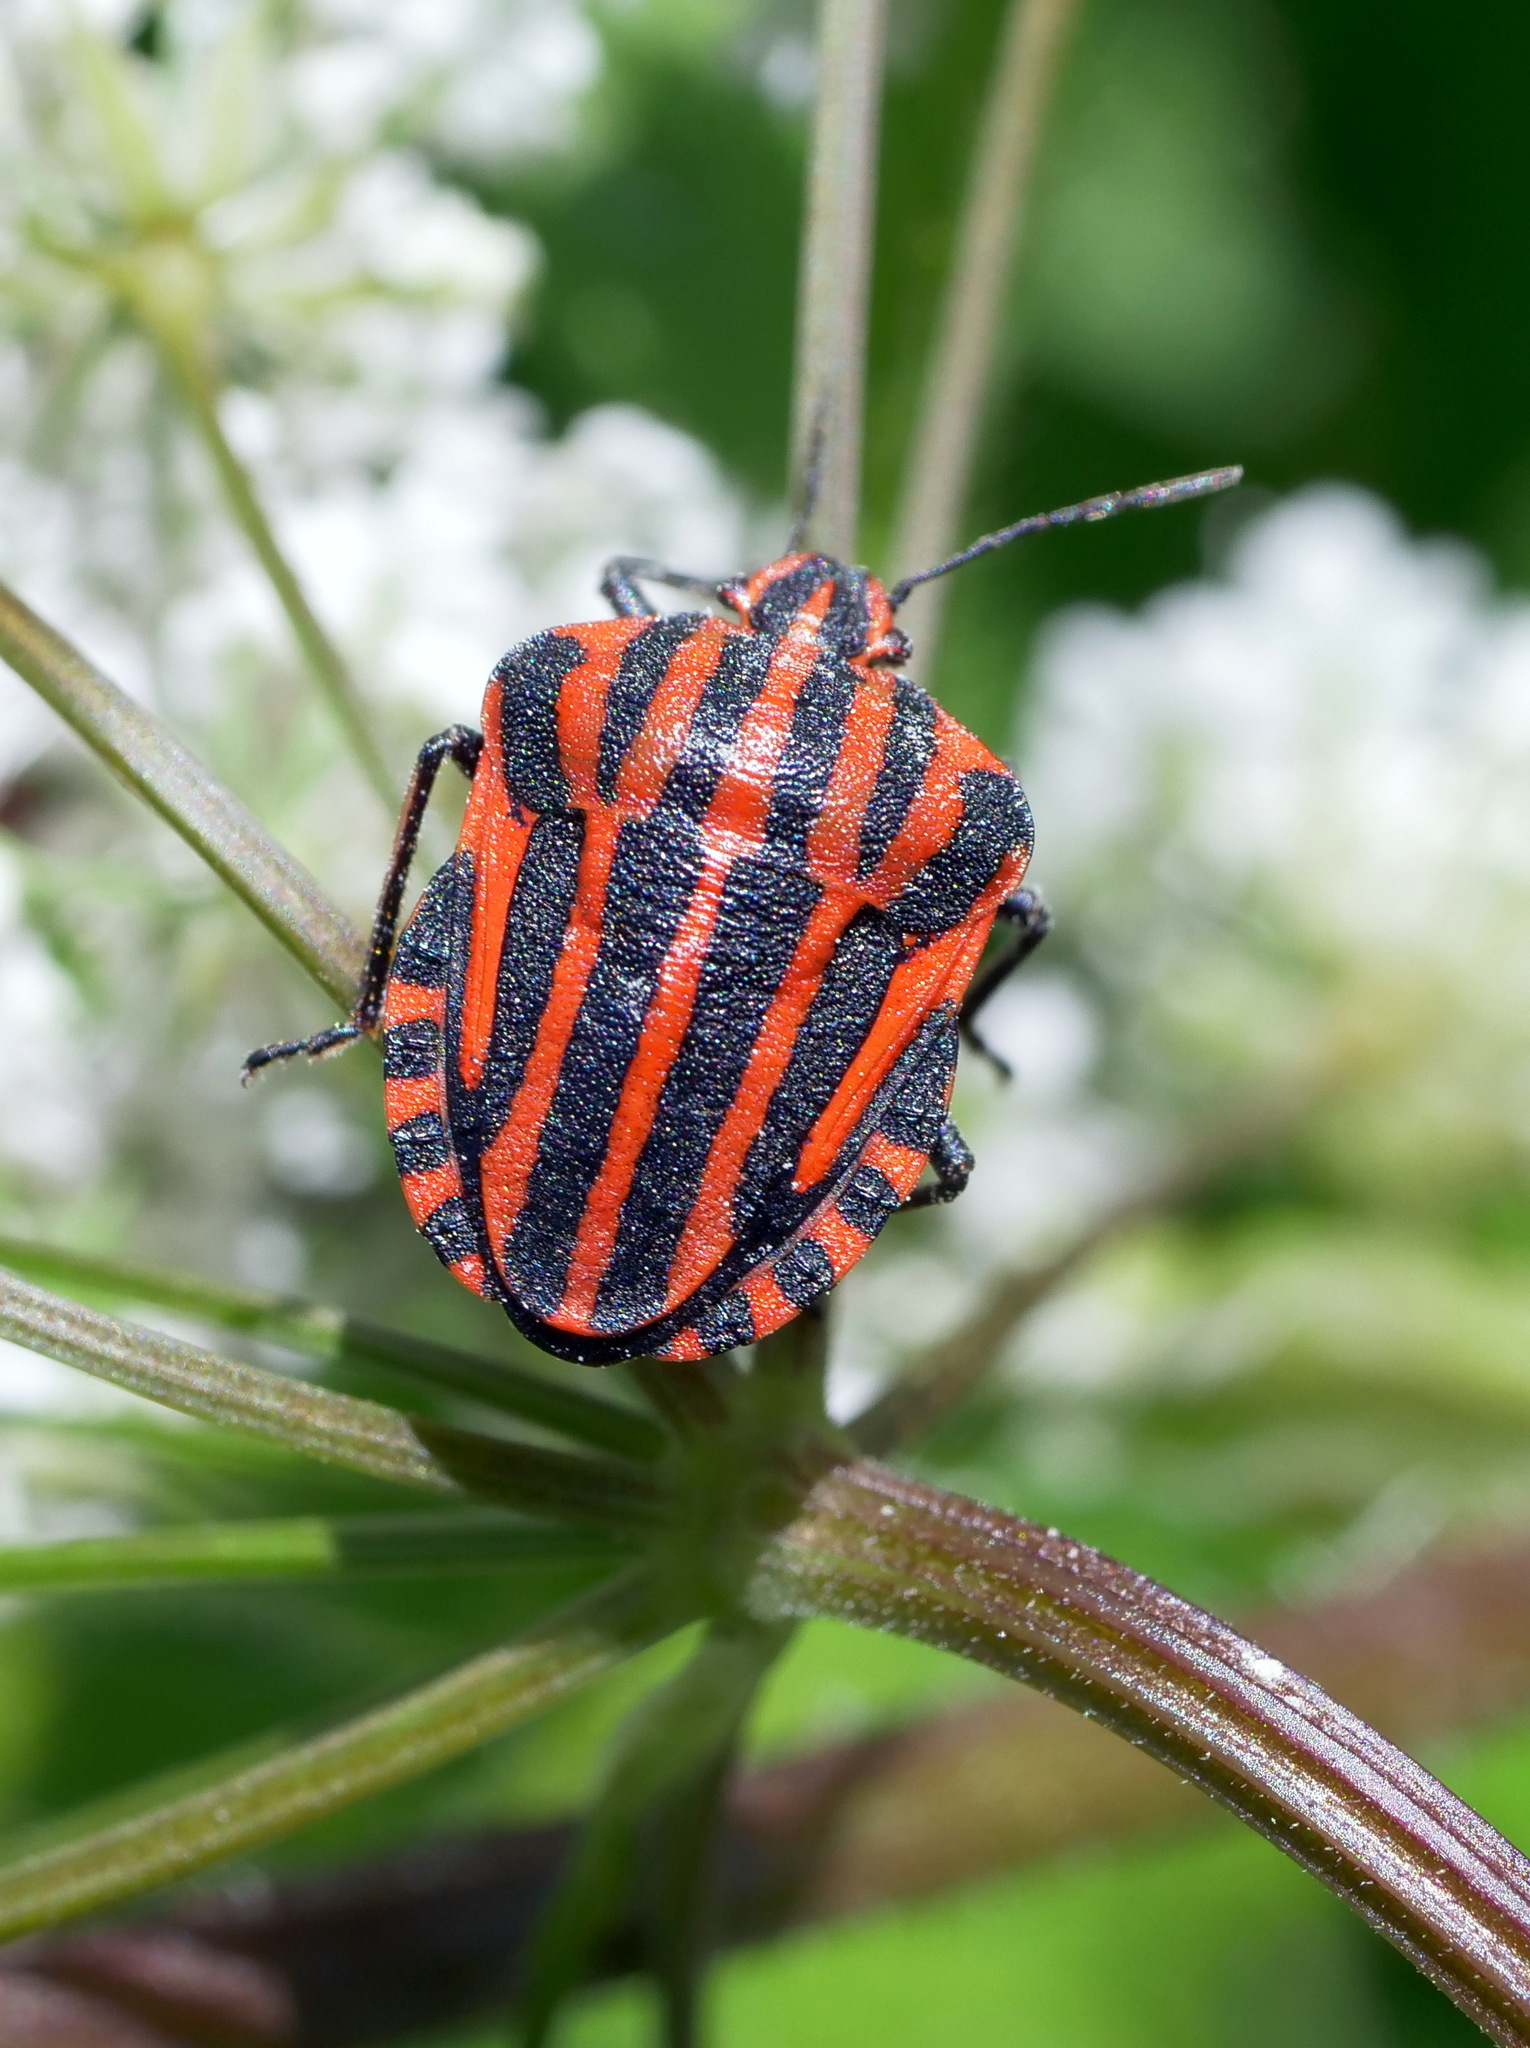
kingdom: Animalia
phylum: Arthropoda
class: Insecta
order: Hemiptera
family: Pentatomidae
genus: Graphosoma
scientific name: Graphosoma italicum
